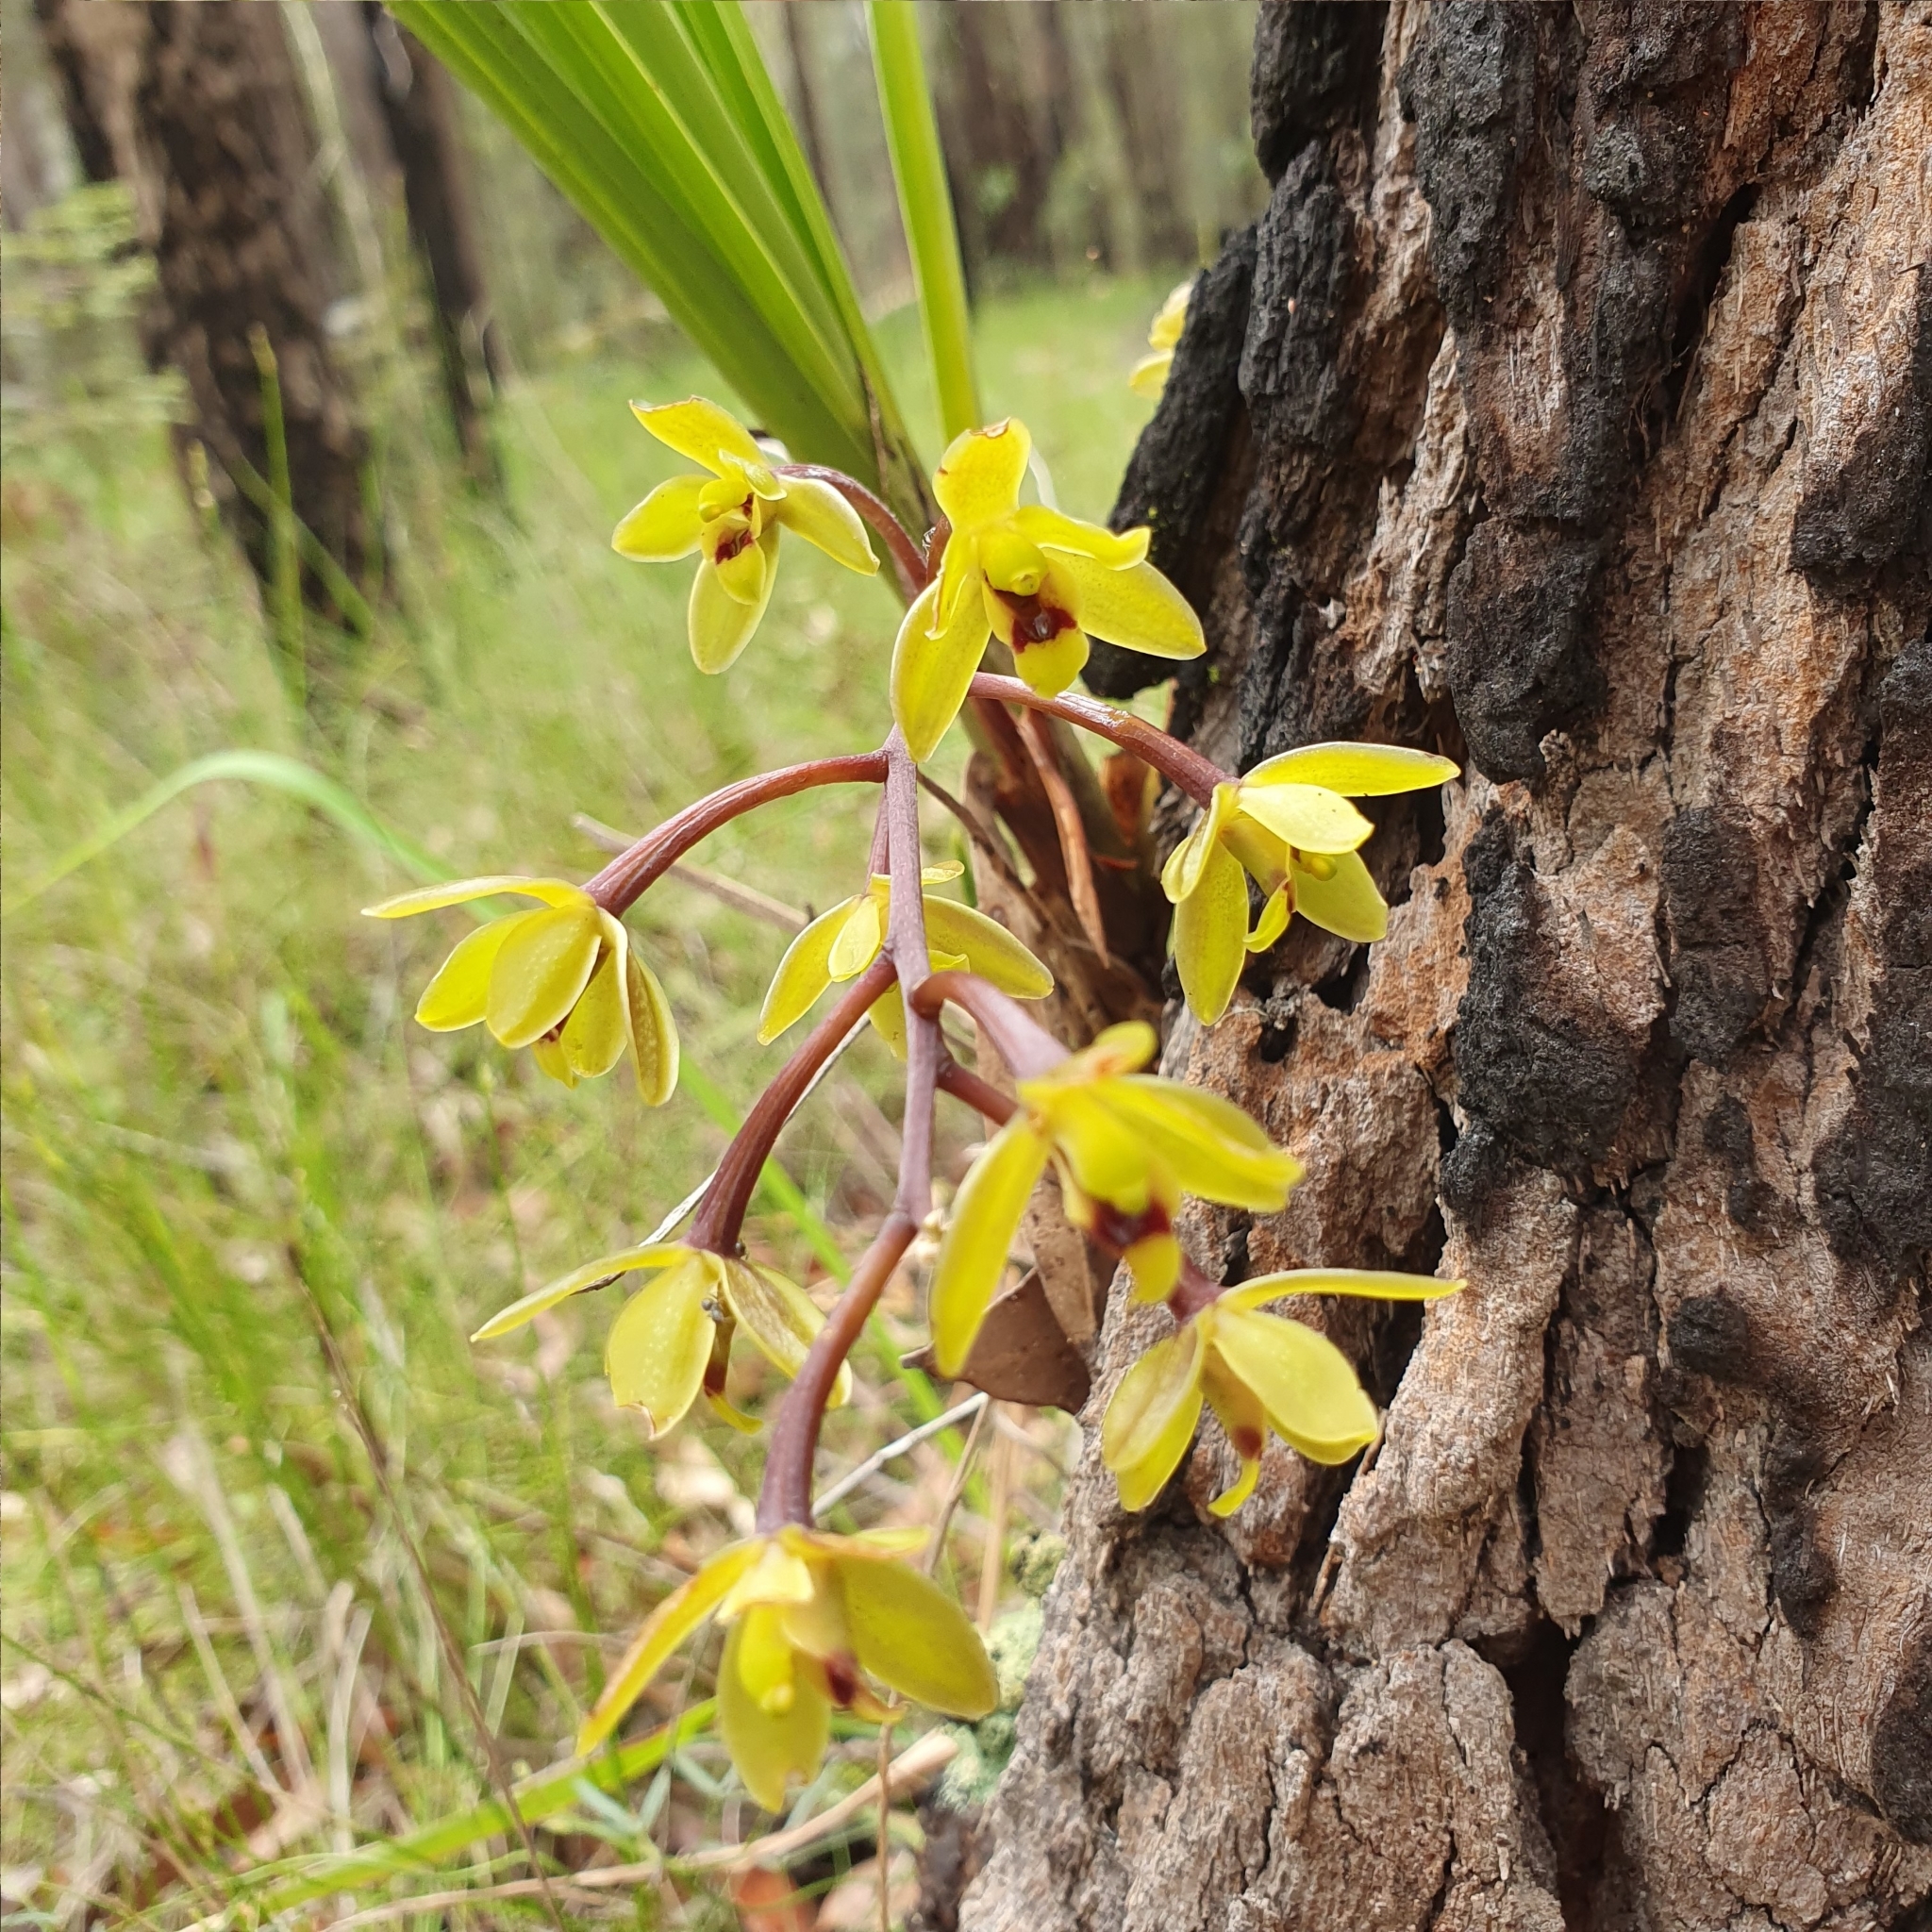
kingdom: Plantae
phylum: Tracheophyta
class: Liliopsida
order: Asparagales
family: Orchidaceae
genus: Cymbidium
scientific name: Cymbidium suave
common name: Snake orchid
